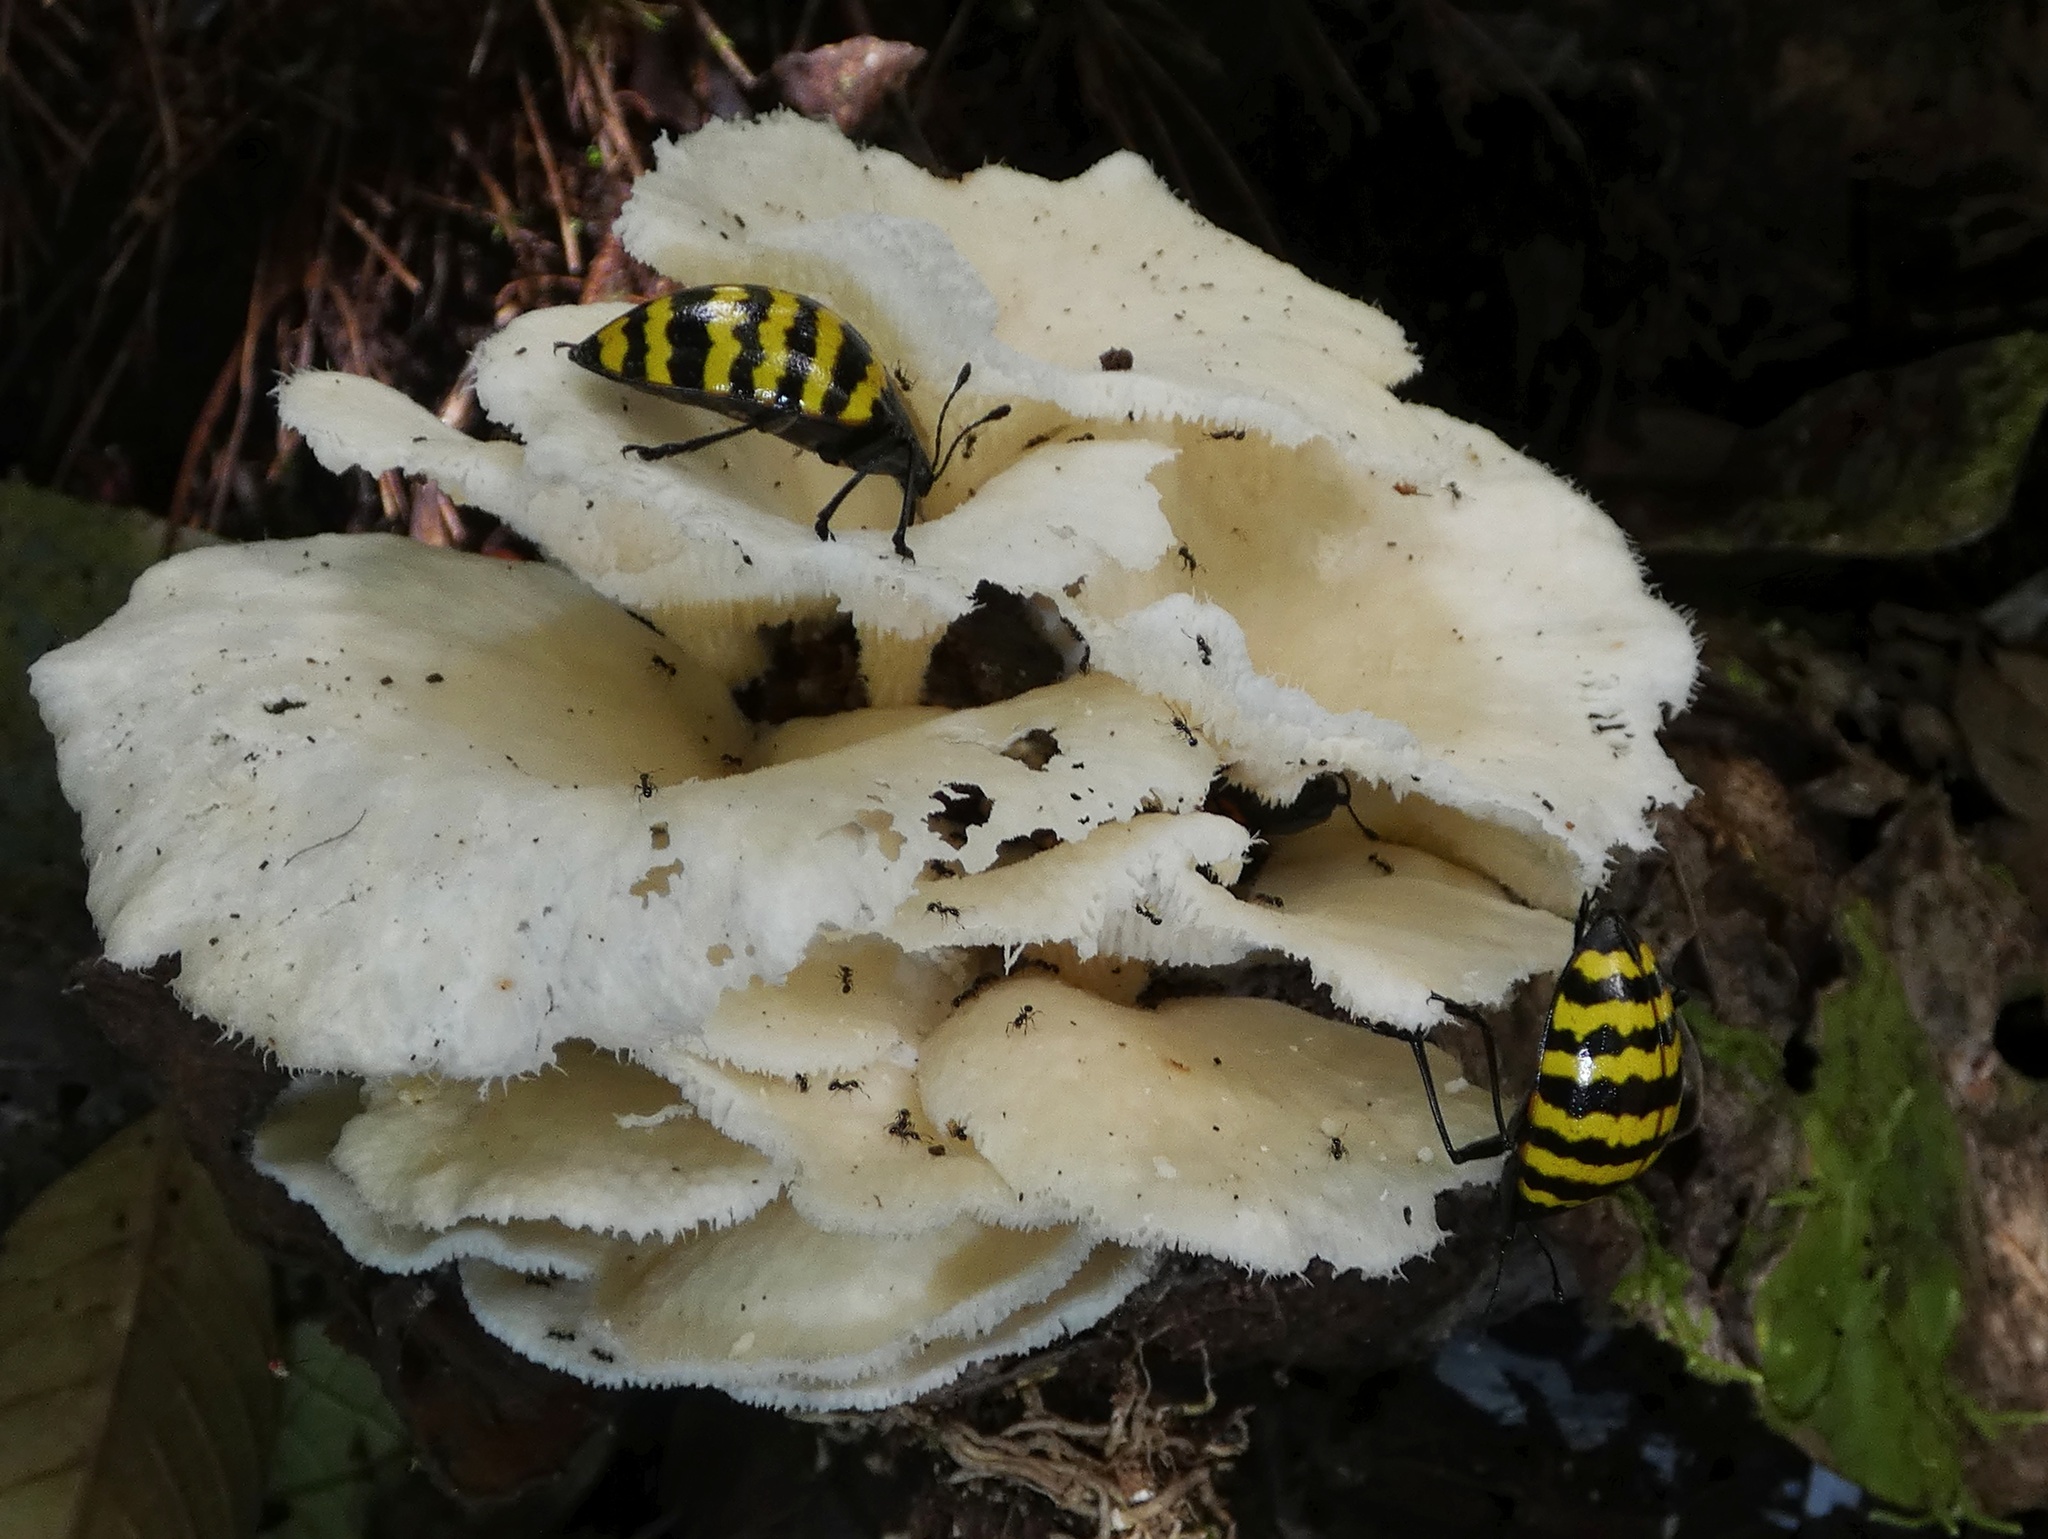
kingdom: Fungi
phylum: Basidiomycota
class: Agaricomycetes
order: Polyporales
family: Polyporaceae
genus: Favolus
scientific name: Favolus tenuiculus
